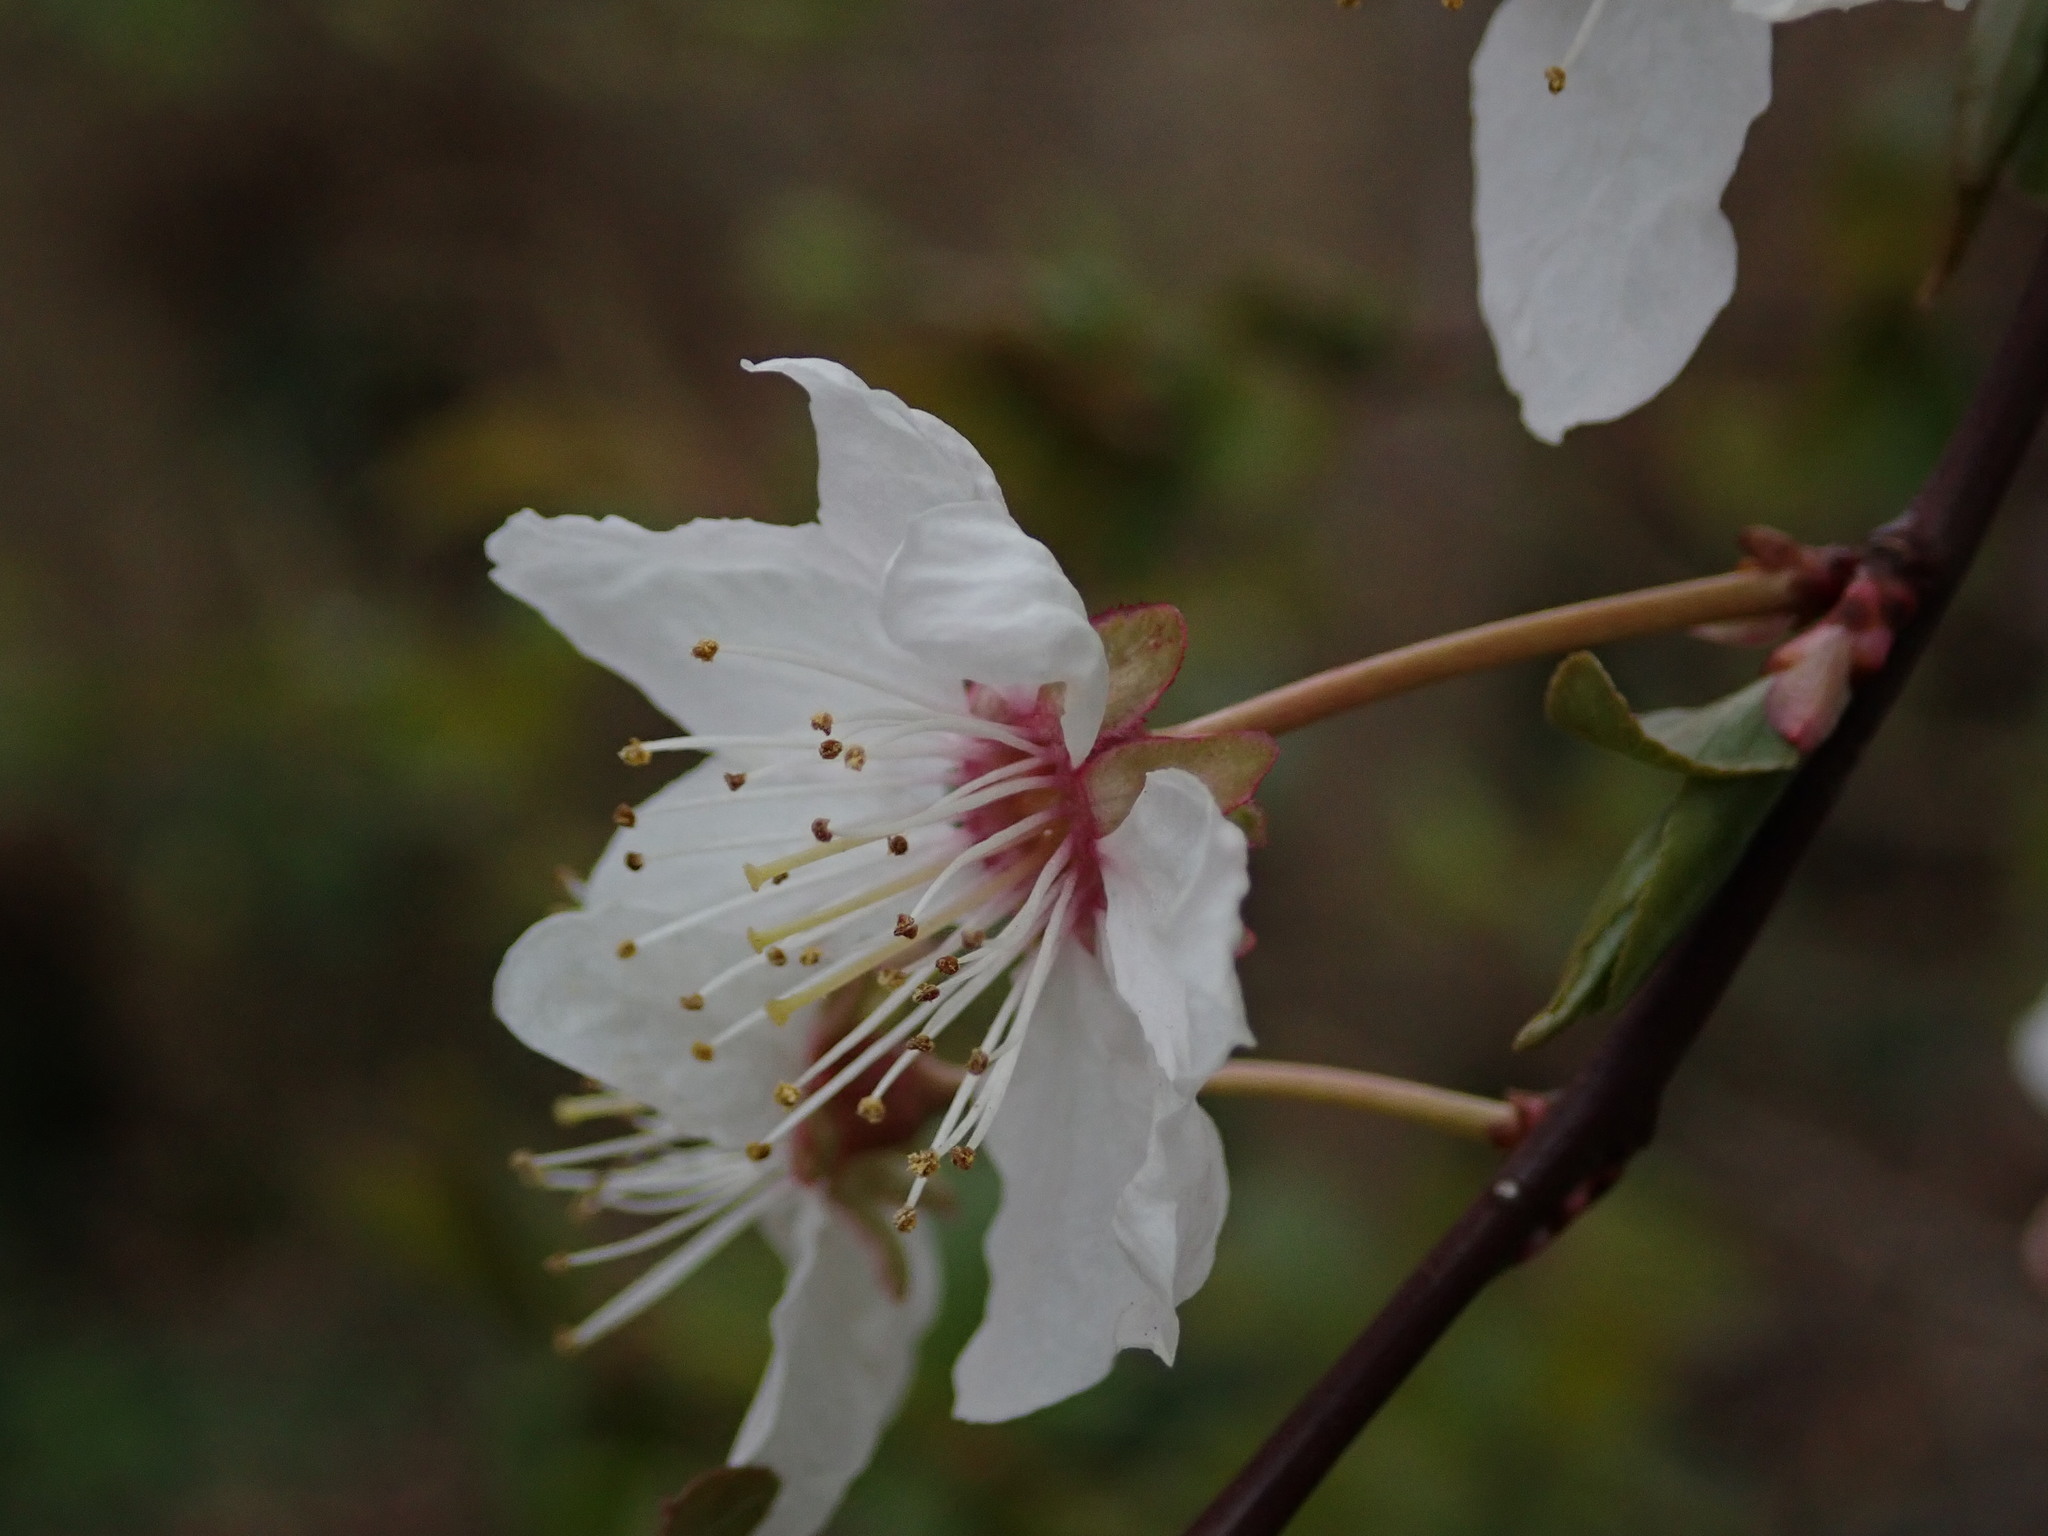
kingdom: Plantae
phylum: Tracheophyta
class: Magnoliopsida
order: Rosales
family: Rosaceae
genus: Prunus
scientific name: Prunus cerasifera
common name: Cherry plum
